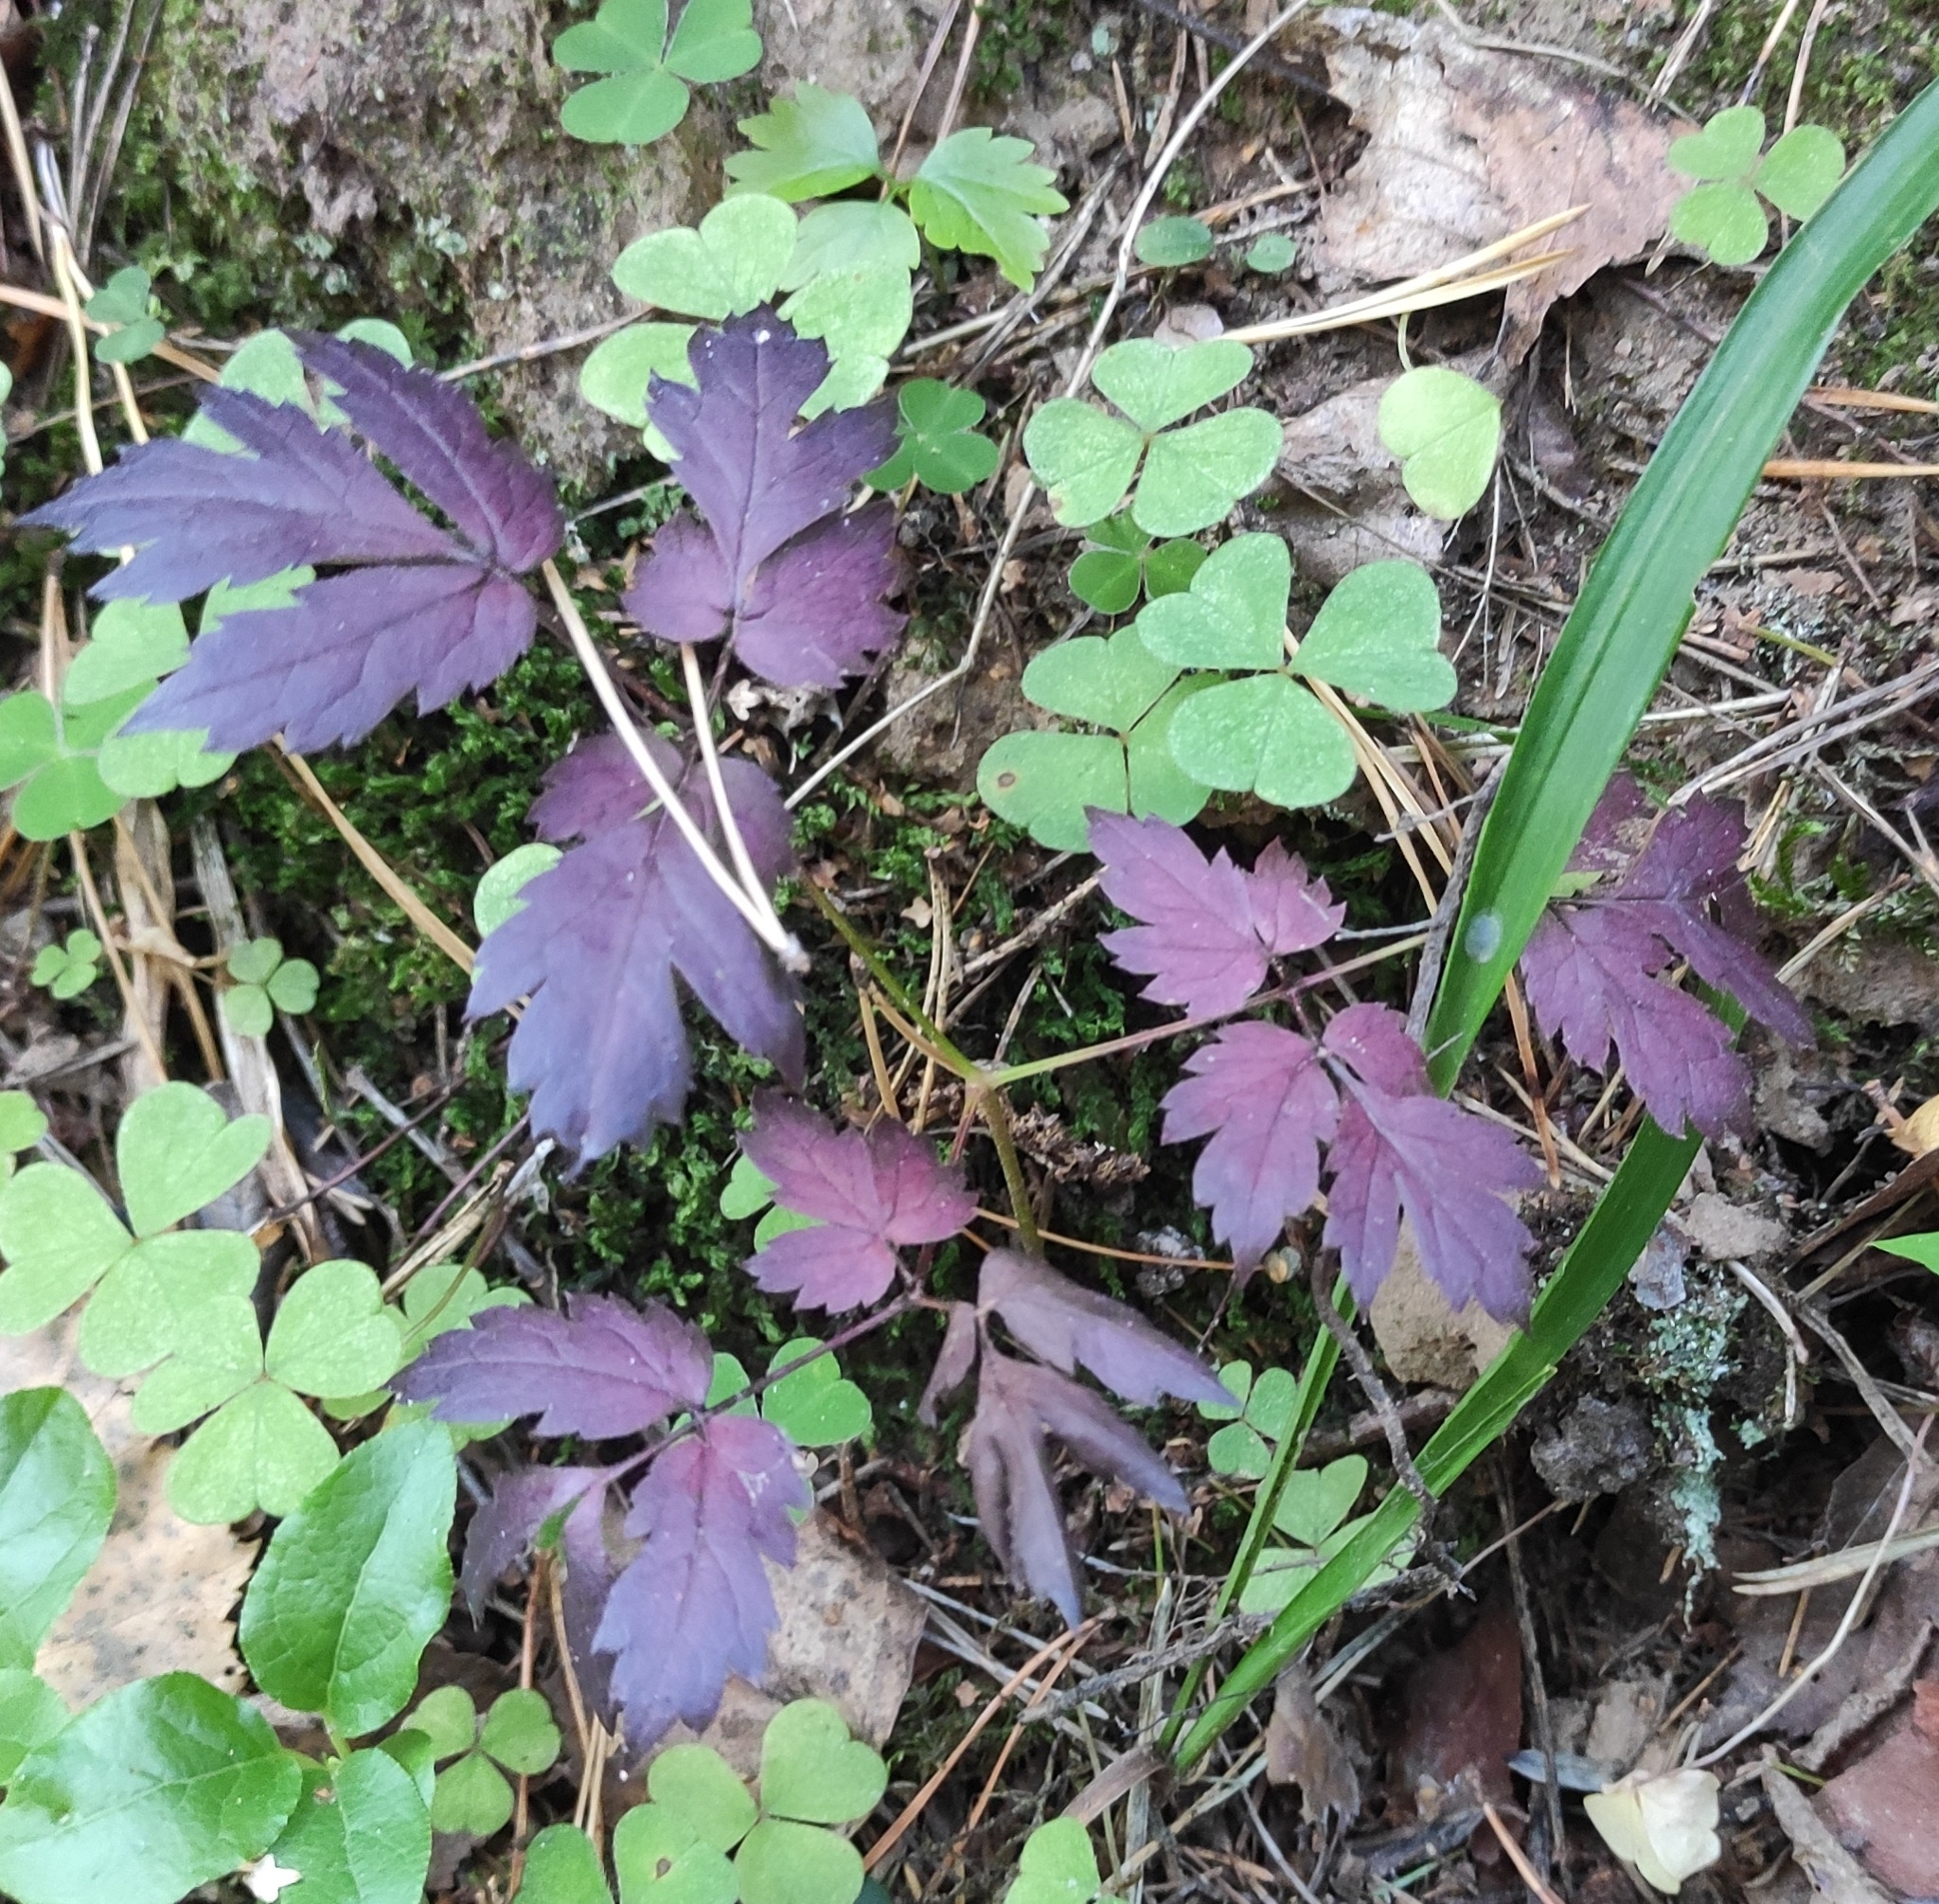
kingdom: Plantae
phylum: Tracheophyta
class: Magnoliopsida
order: Ranunculales
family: Ranunculaceae
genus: Actaea
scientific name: Actaea spicata
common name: Baneberry
